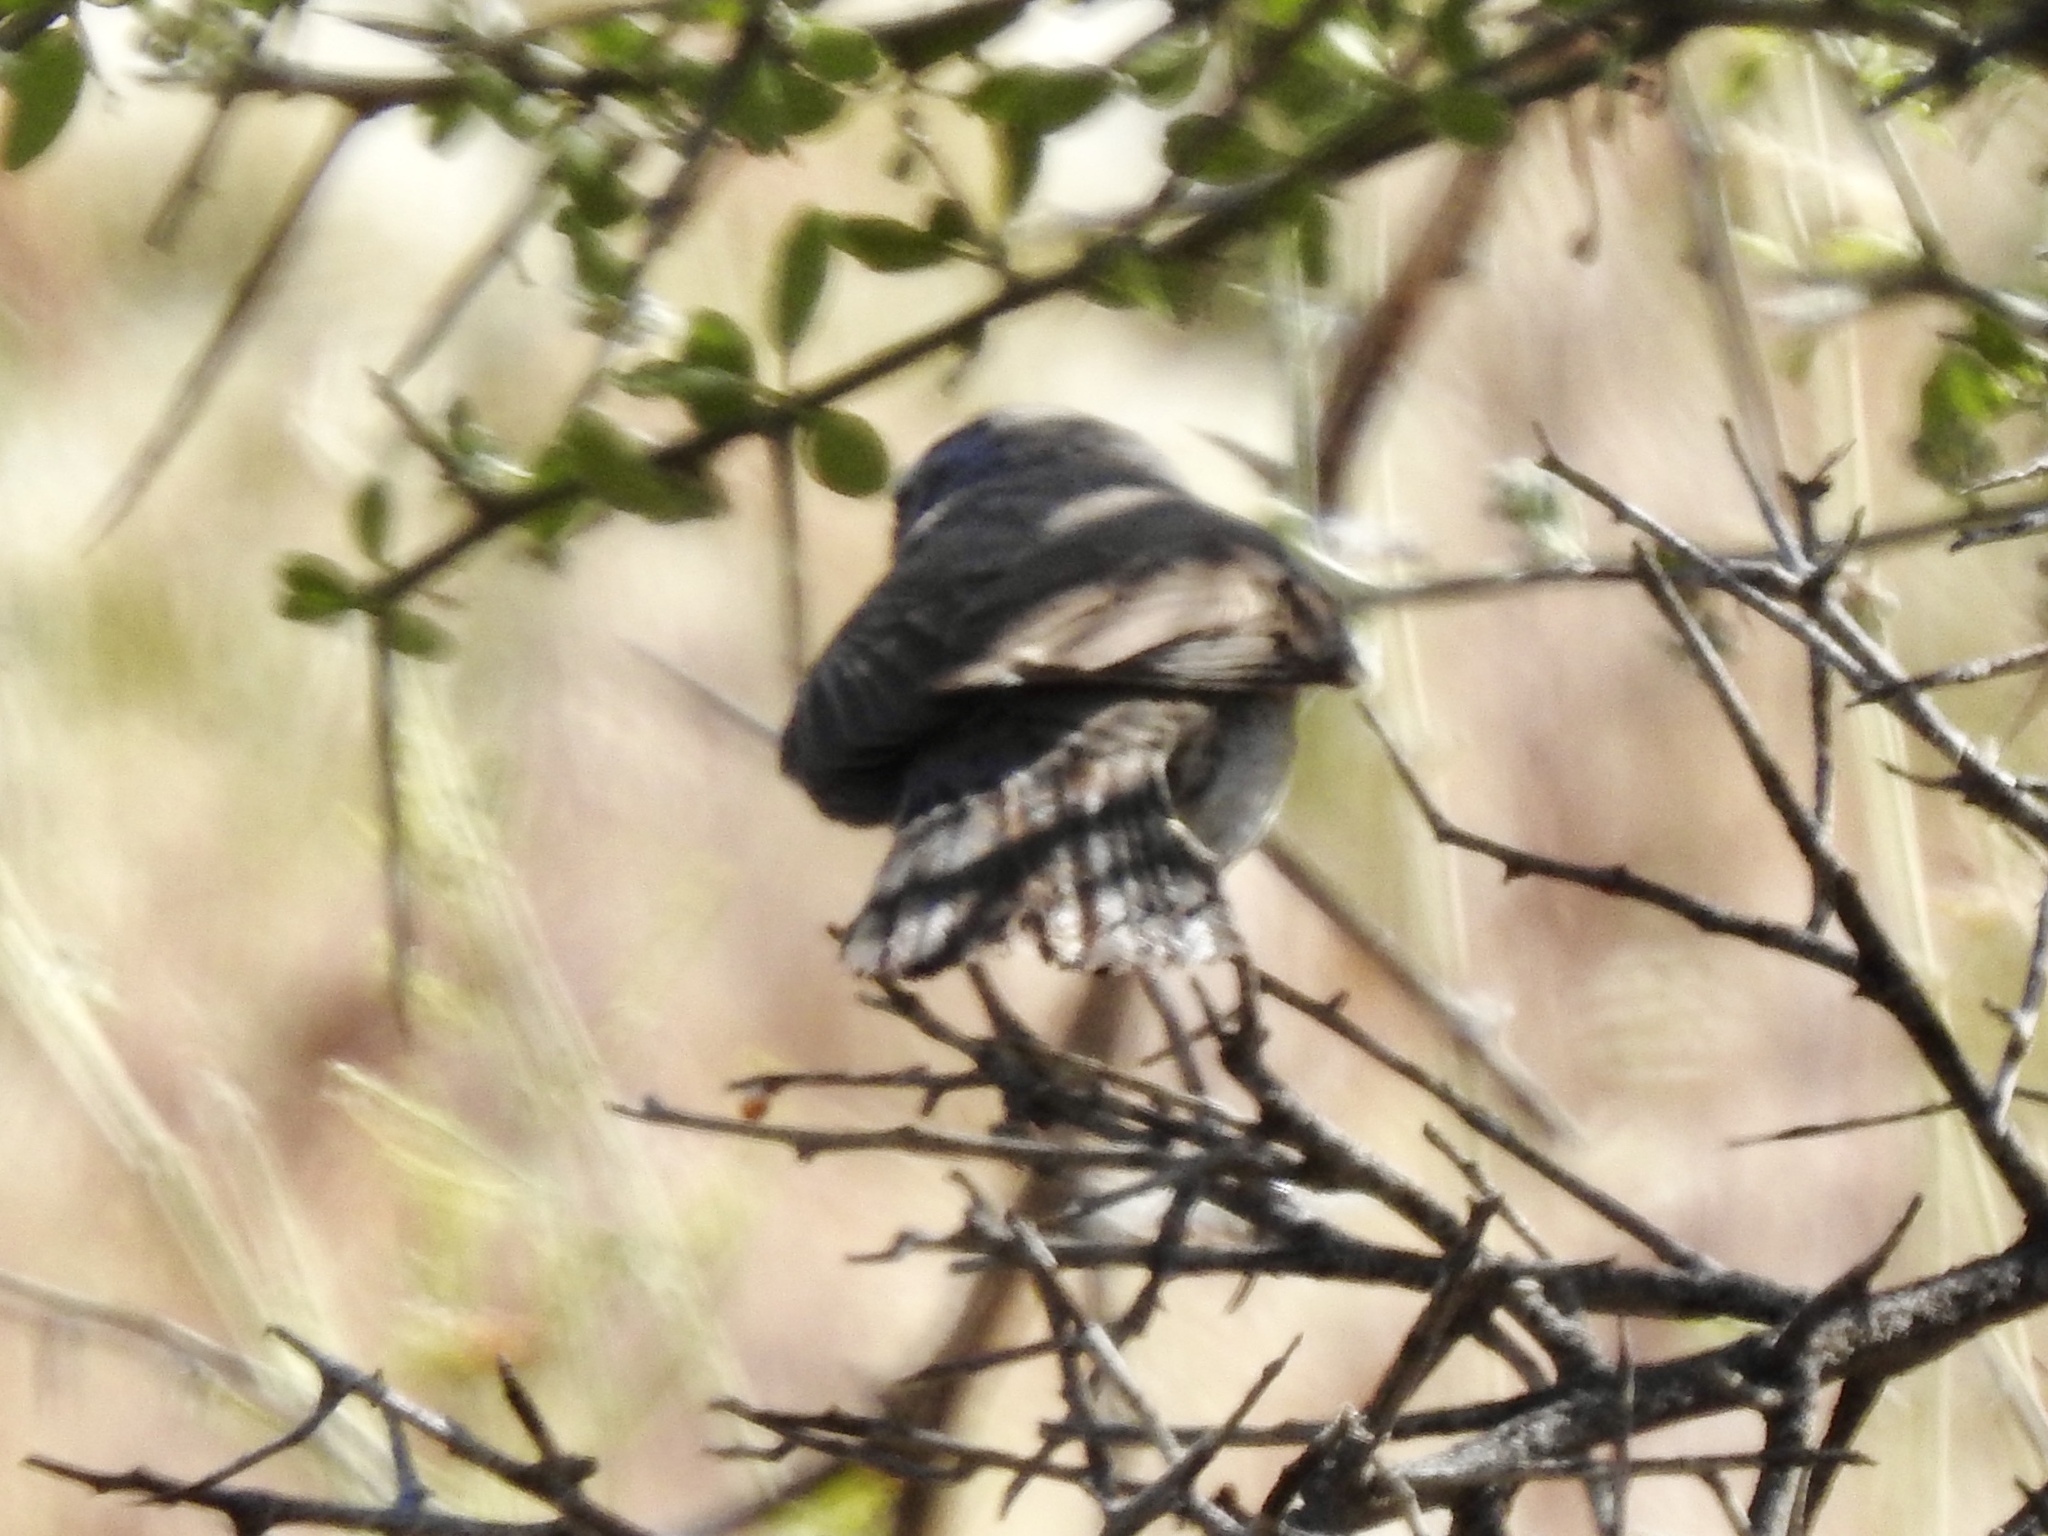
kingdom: Animalia
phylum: Chordata
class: Aves
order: Passeriformes
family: Passerellidae
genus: Amphispiza
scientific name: Amphispiza bilineata
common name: Black-throated sparrow
